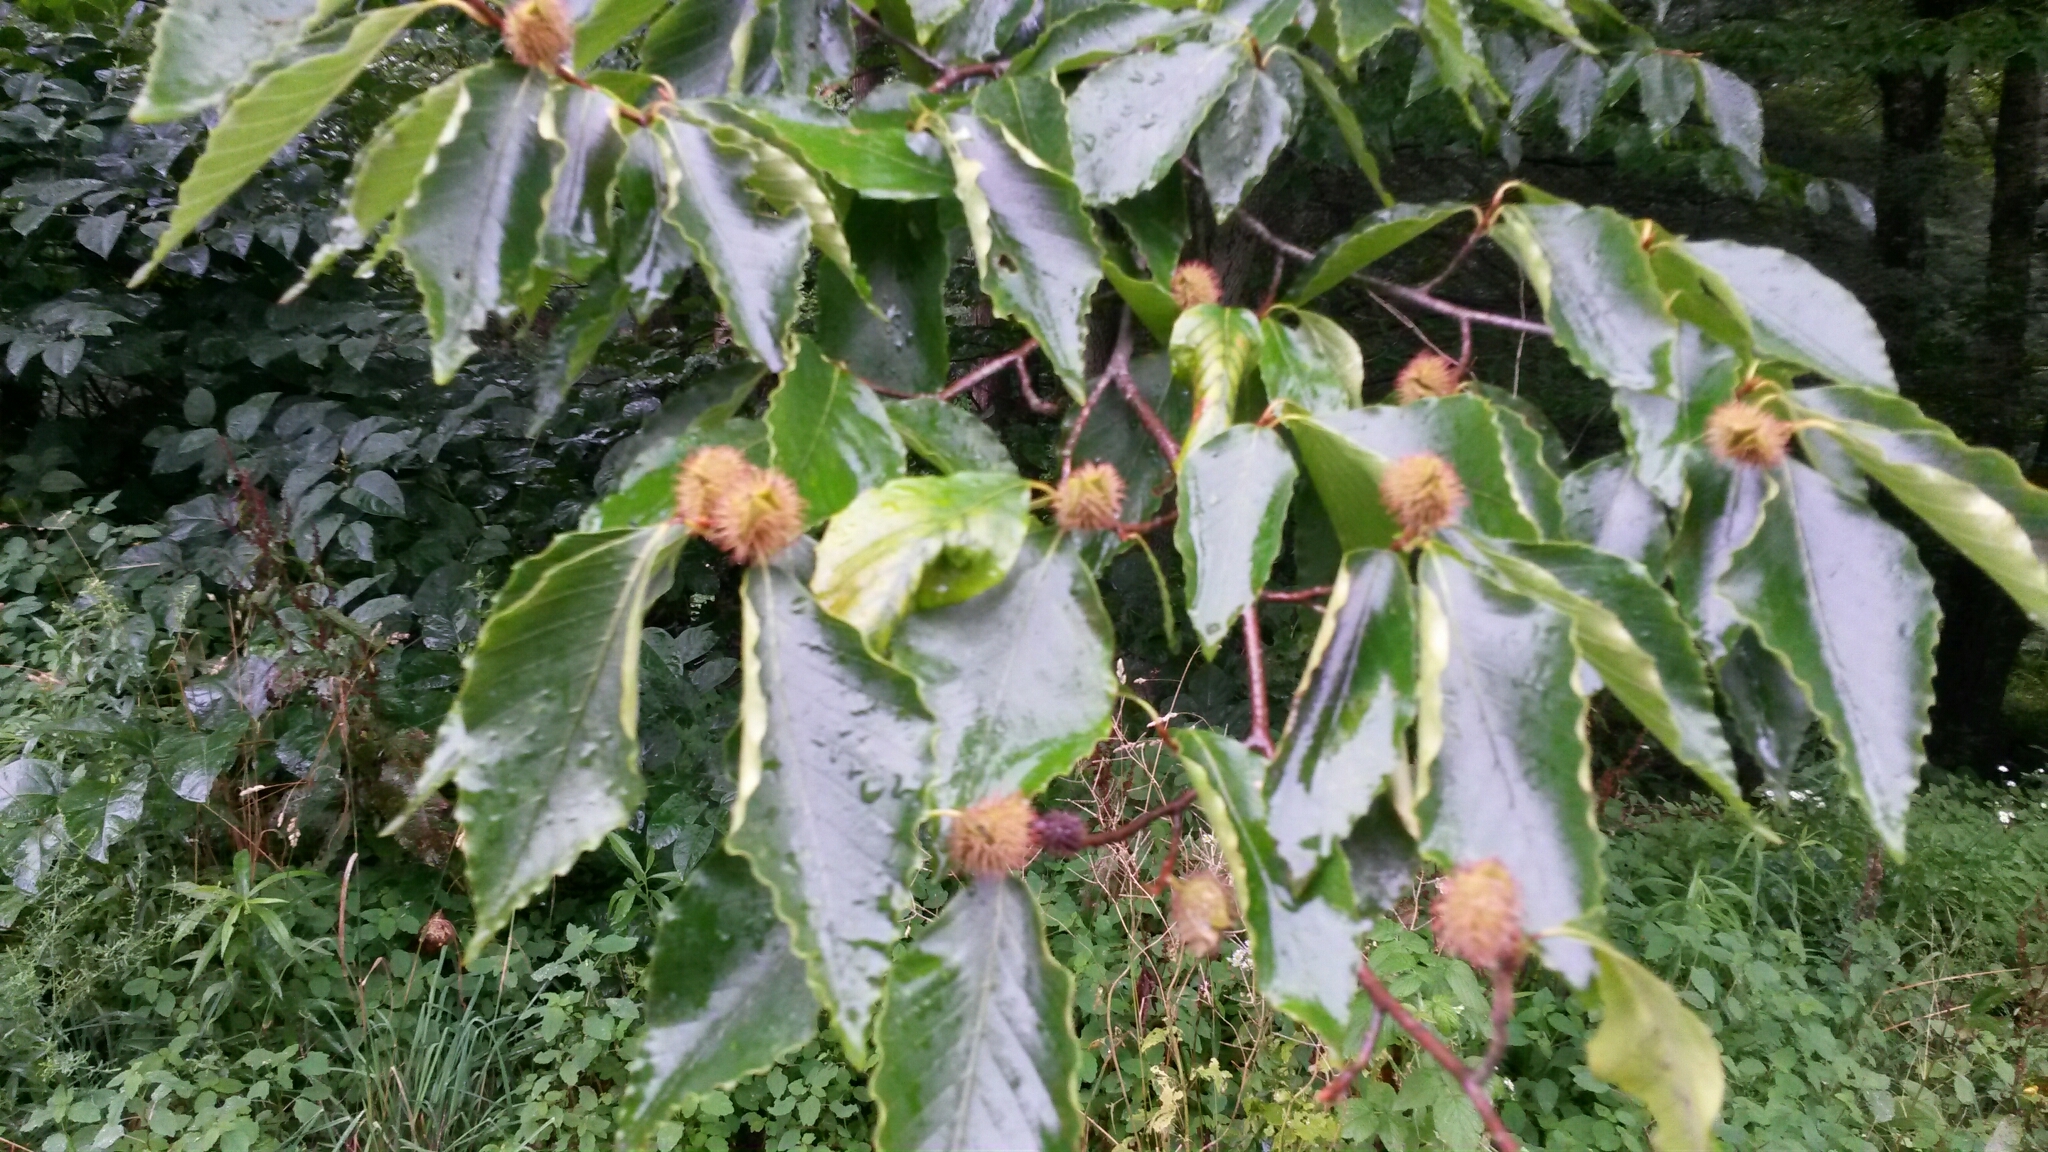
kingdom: Plantae
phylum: Tracheophyta
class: Magnoliopsida
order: Fagales
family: Fagaceae
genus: Fagus
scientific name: Fagus grandifolia
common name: American beech
